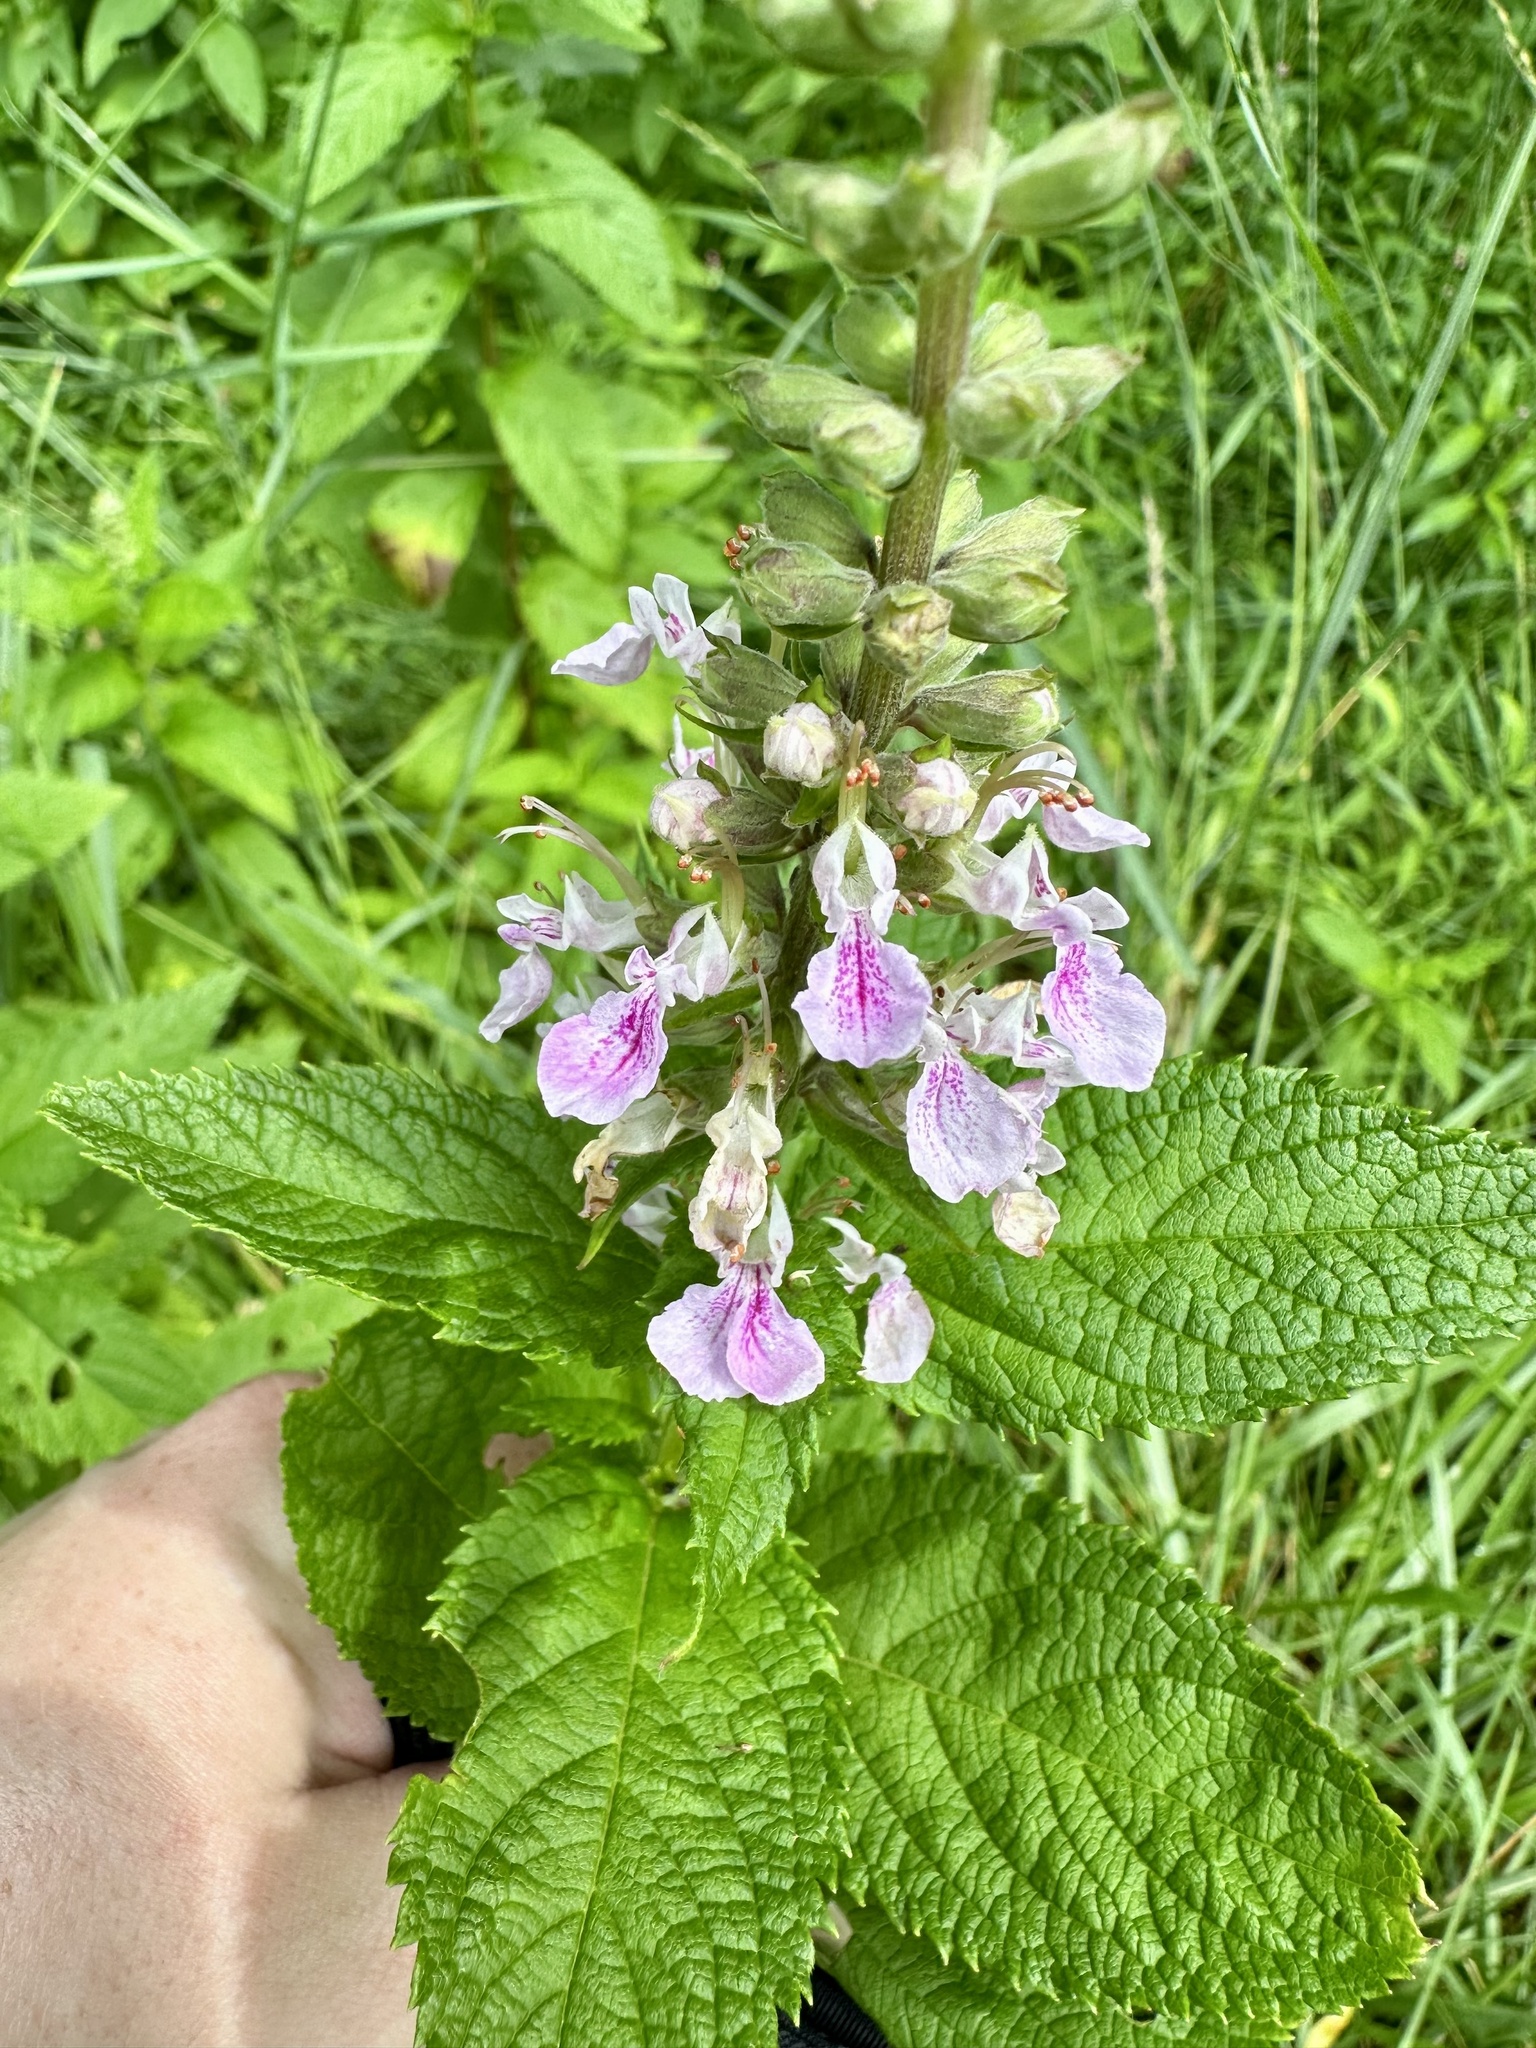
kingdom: Plantae
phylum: Tracheophyta
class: Magnoliopsida
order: Lamiales
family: Lamiaceae
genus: Teucrium
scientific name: Teucrium canadense
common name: American germander
